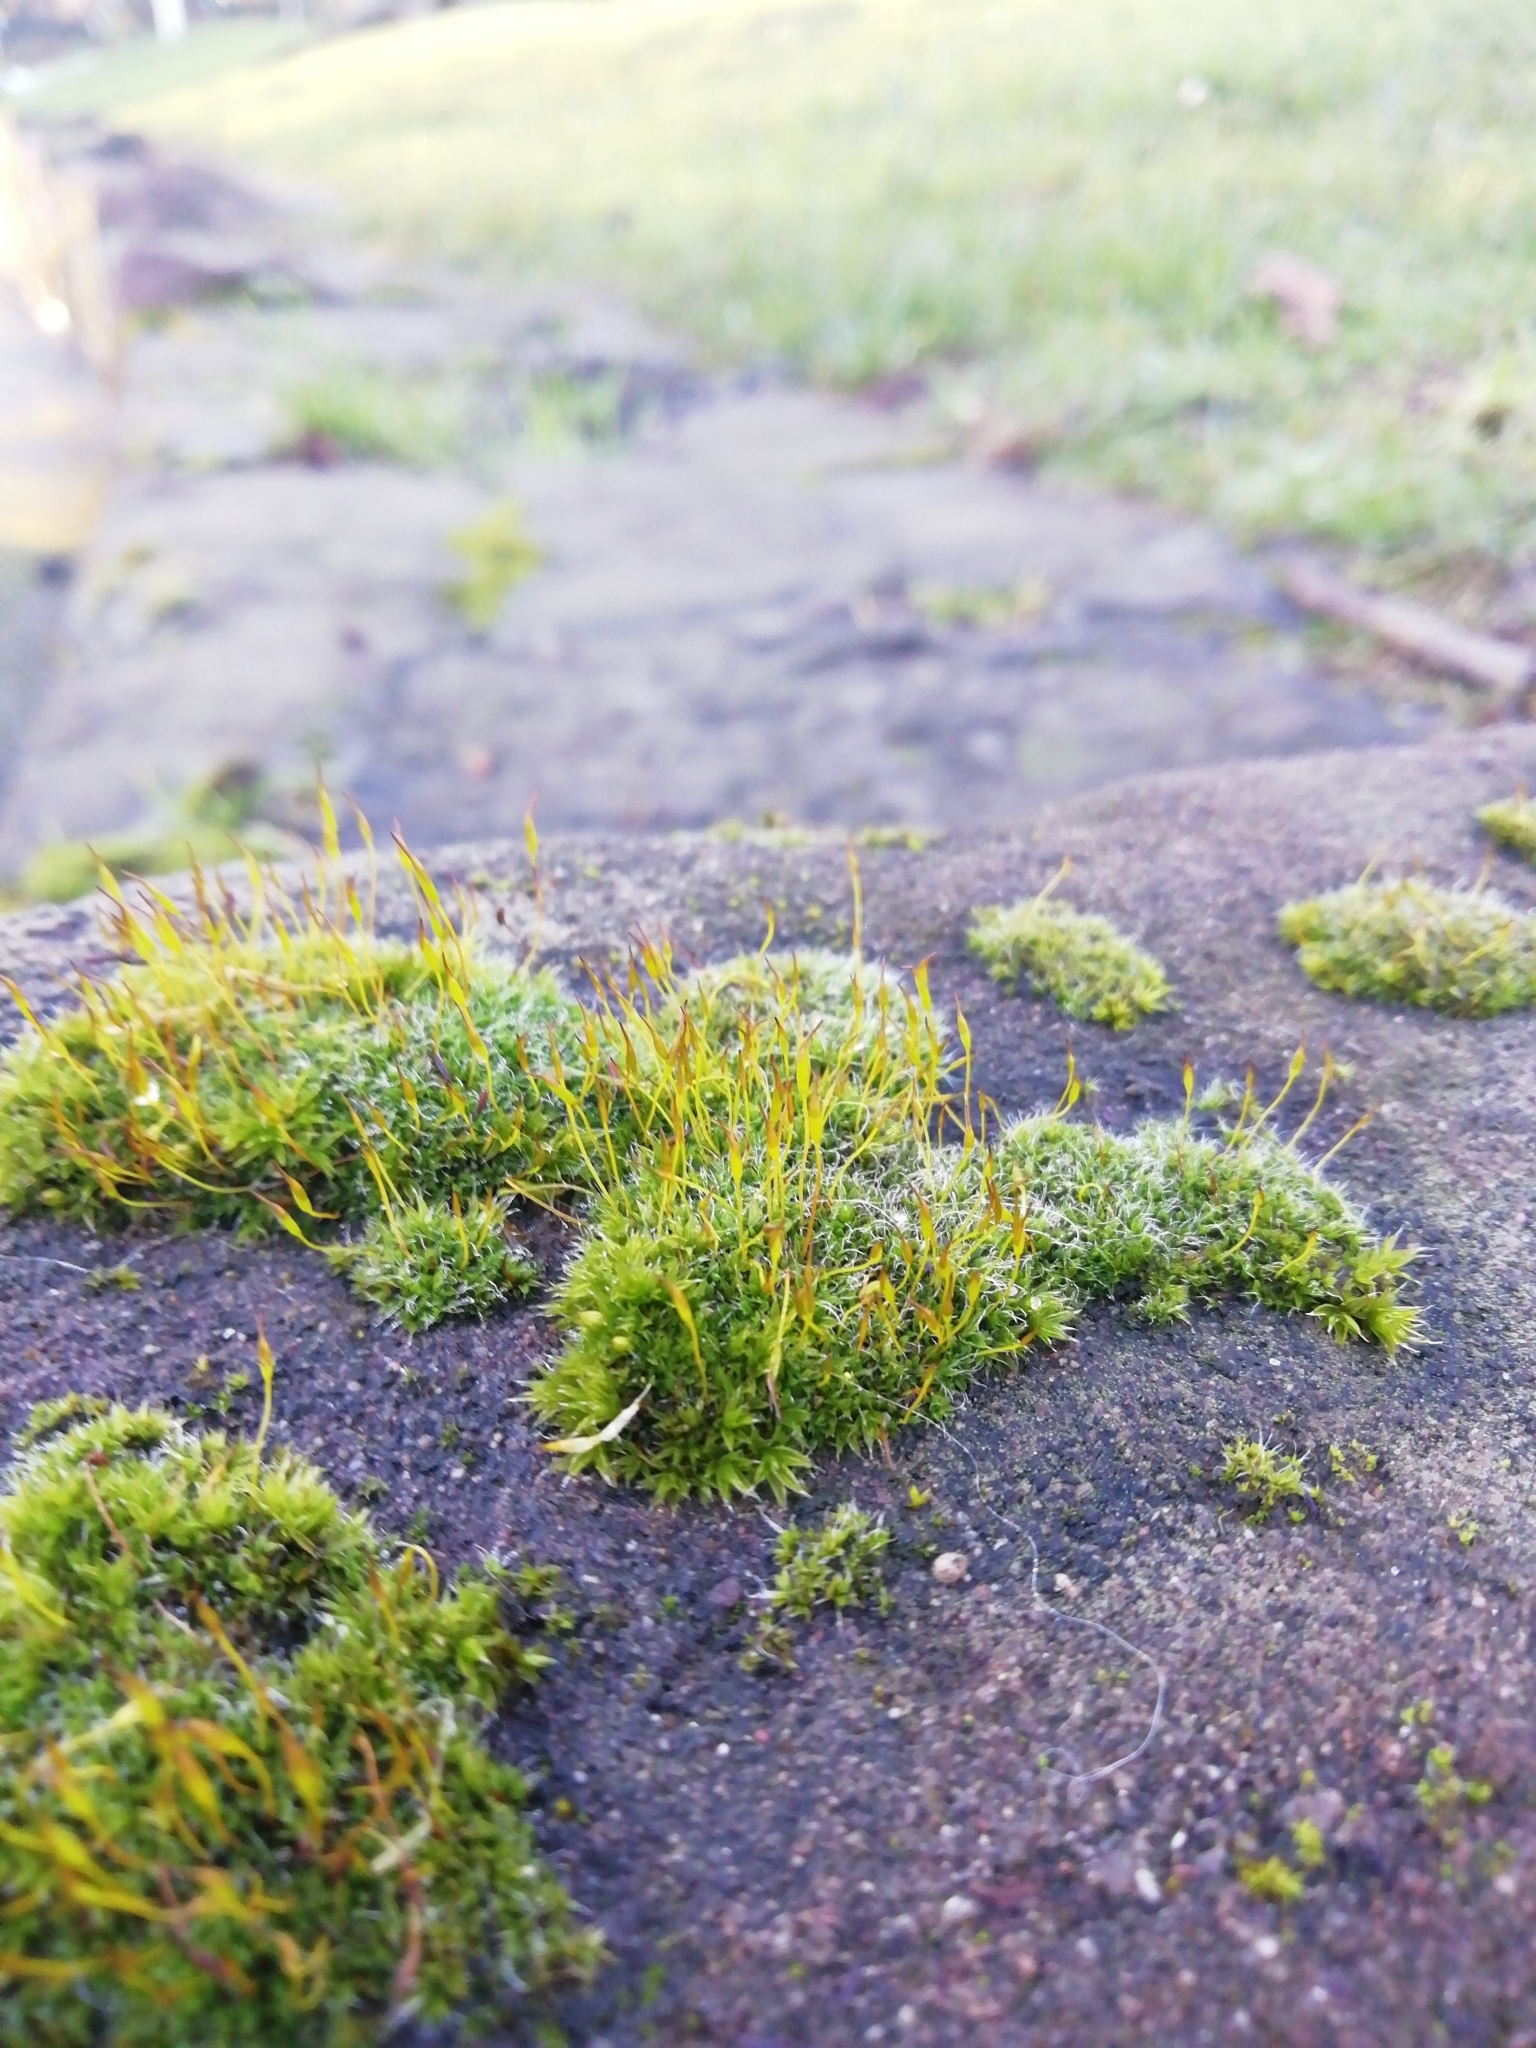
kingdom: Plantae
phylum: Bryophyta
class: Bryopsida
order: Pottiales
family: Pottiaceae
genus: Tortula
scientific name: Tortula muralis
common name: Wall screw-moss
